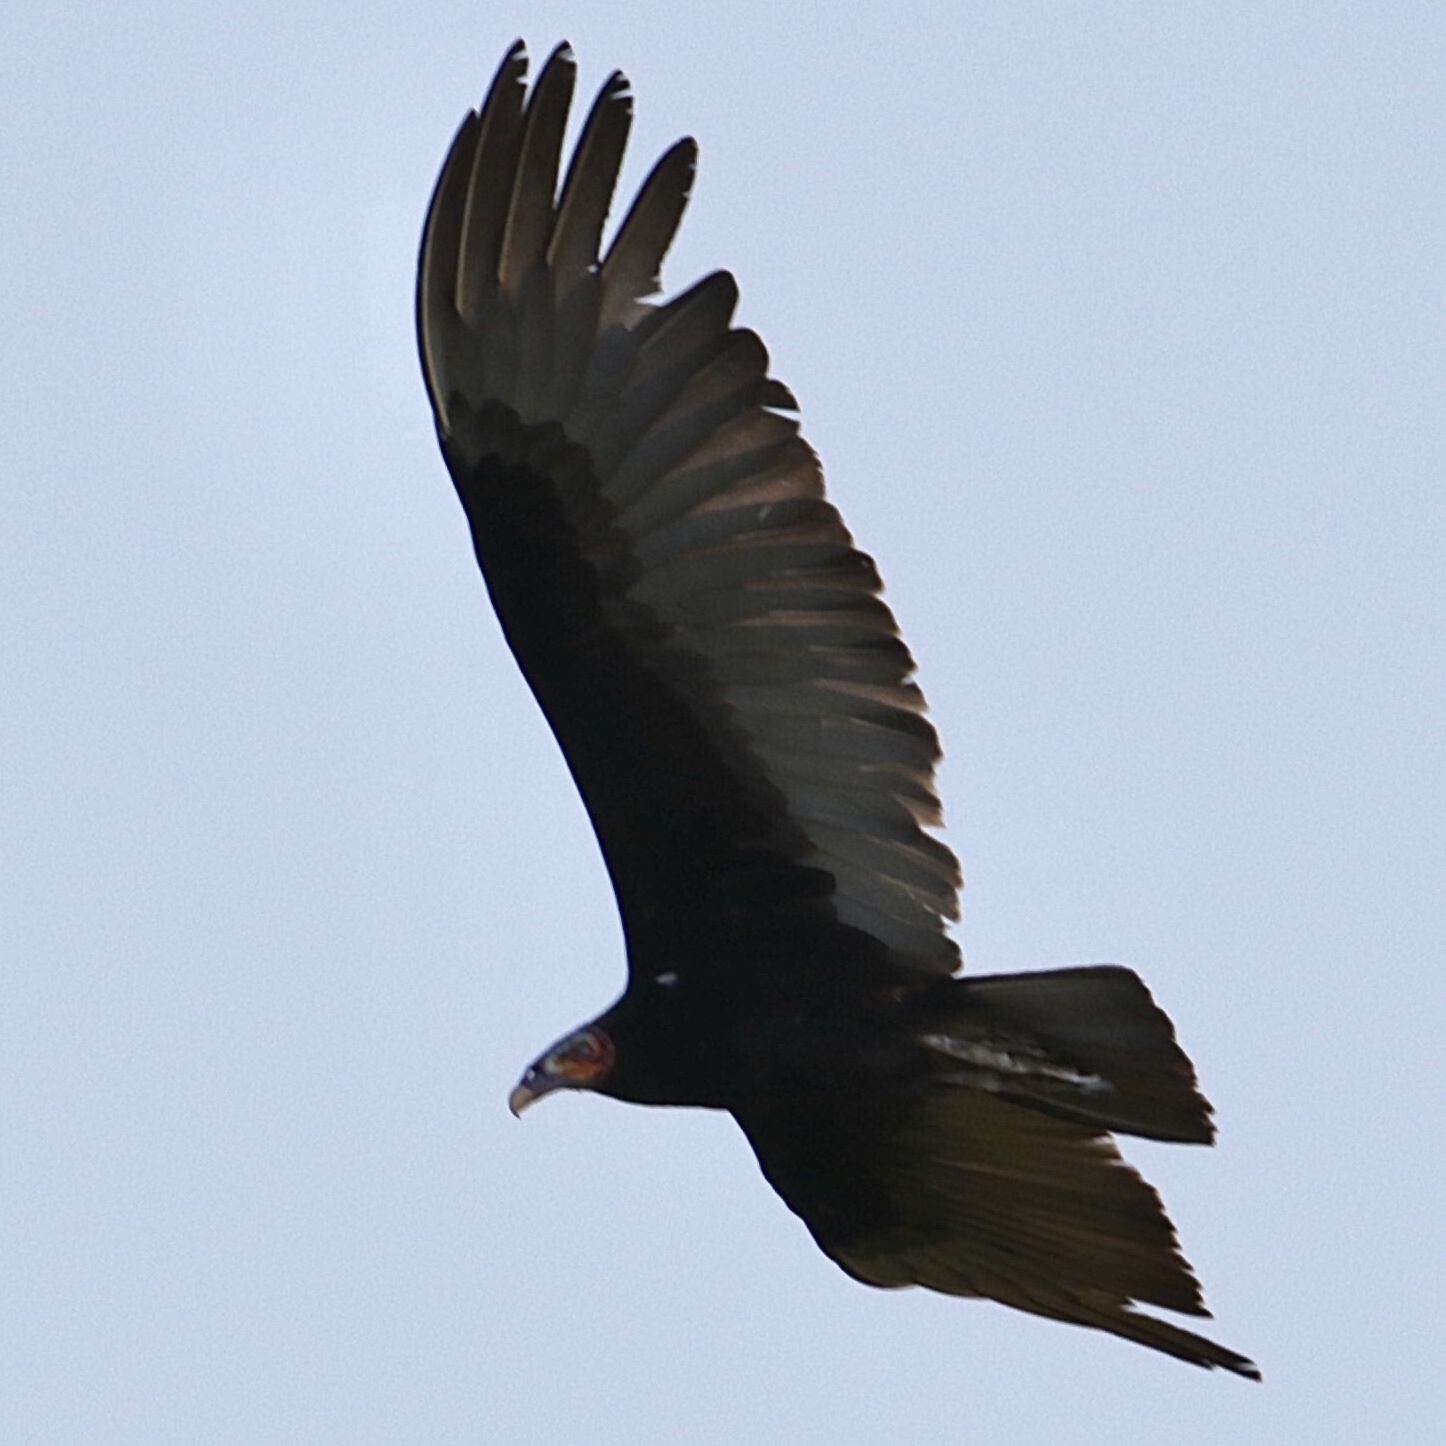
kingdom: Animalia
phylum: Chordata
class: Aves
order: Accipitriformes
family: Cathartidae
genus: Cathartes
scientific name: Cathartes burrovianus
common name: Lesser yellow-headed vulture
